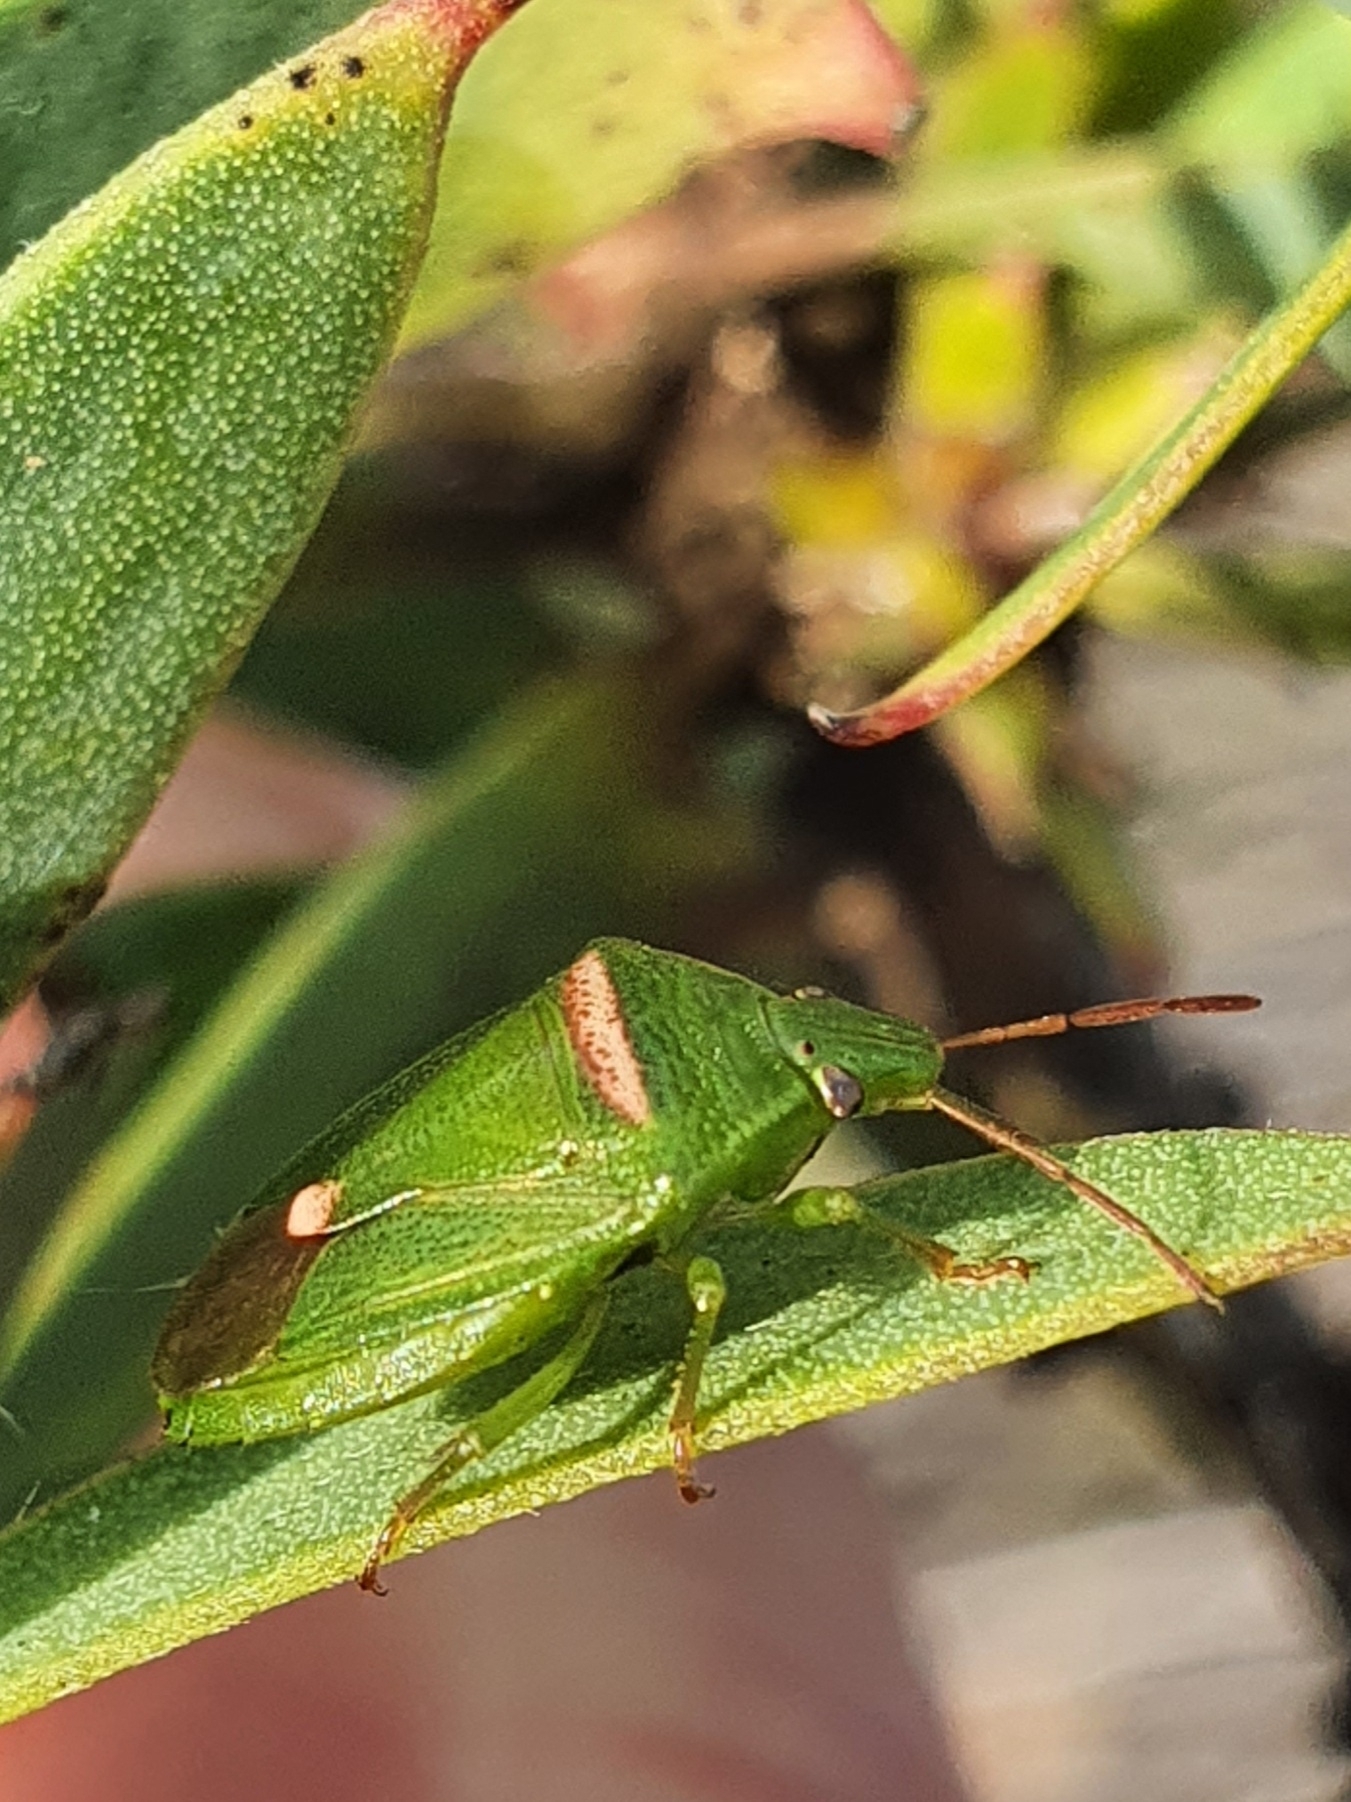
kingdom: Animalia
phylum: Arthropoda
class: Insecta
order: Hemiptera
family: Pentatomidae
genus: Ocirrhoe
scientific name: Ocirrhoe
